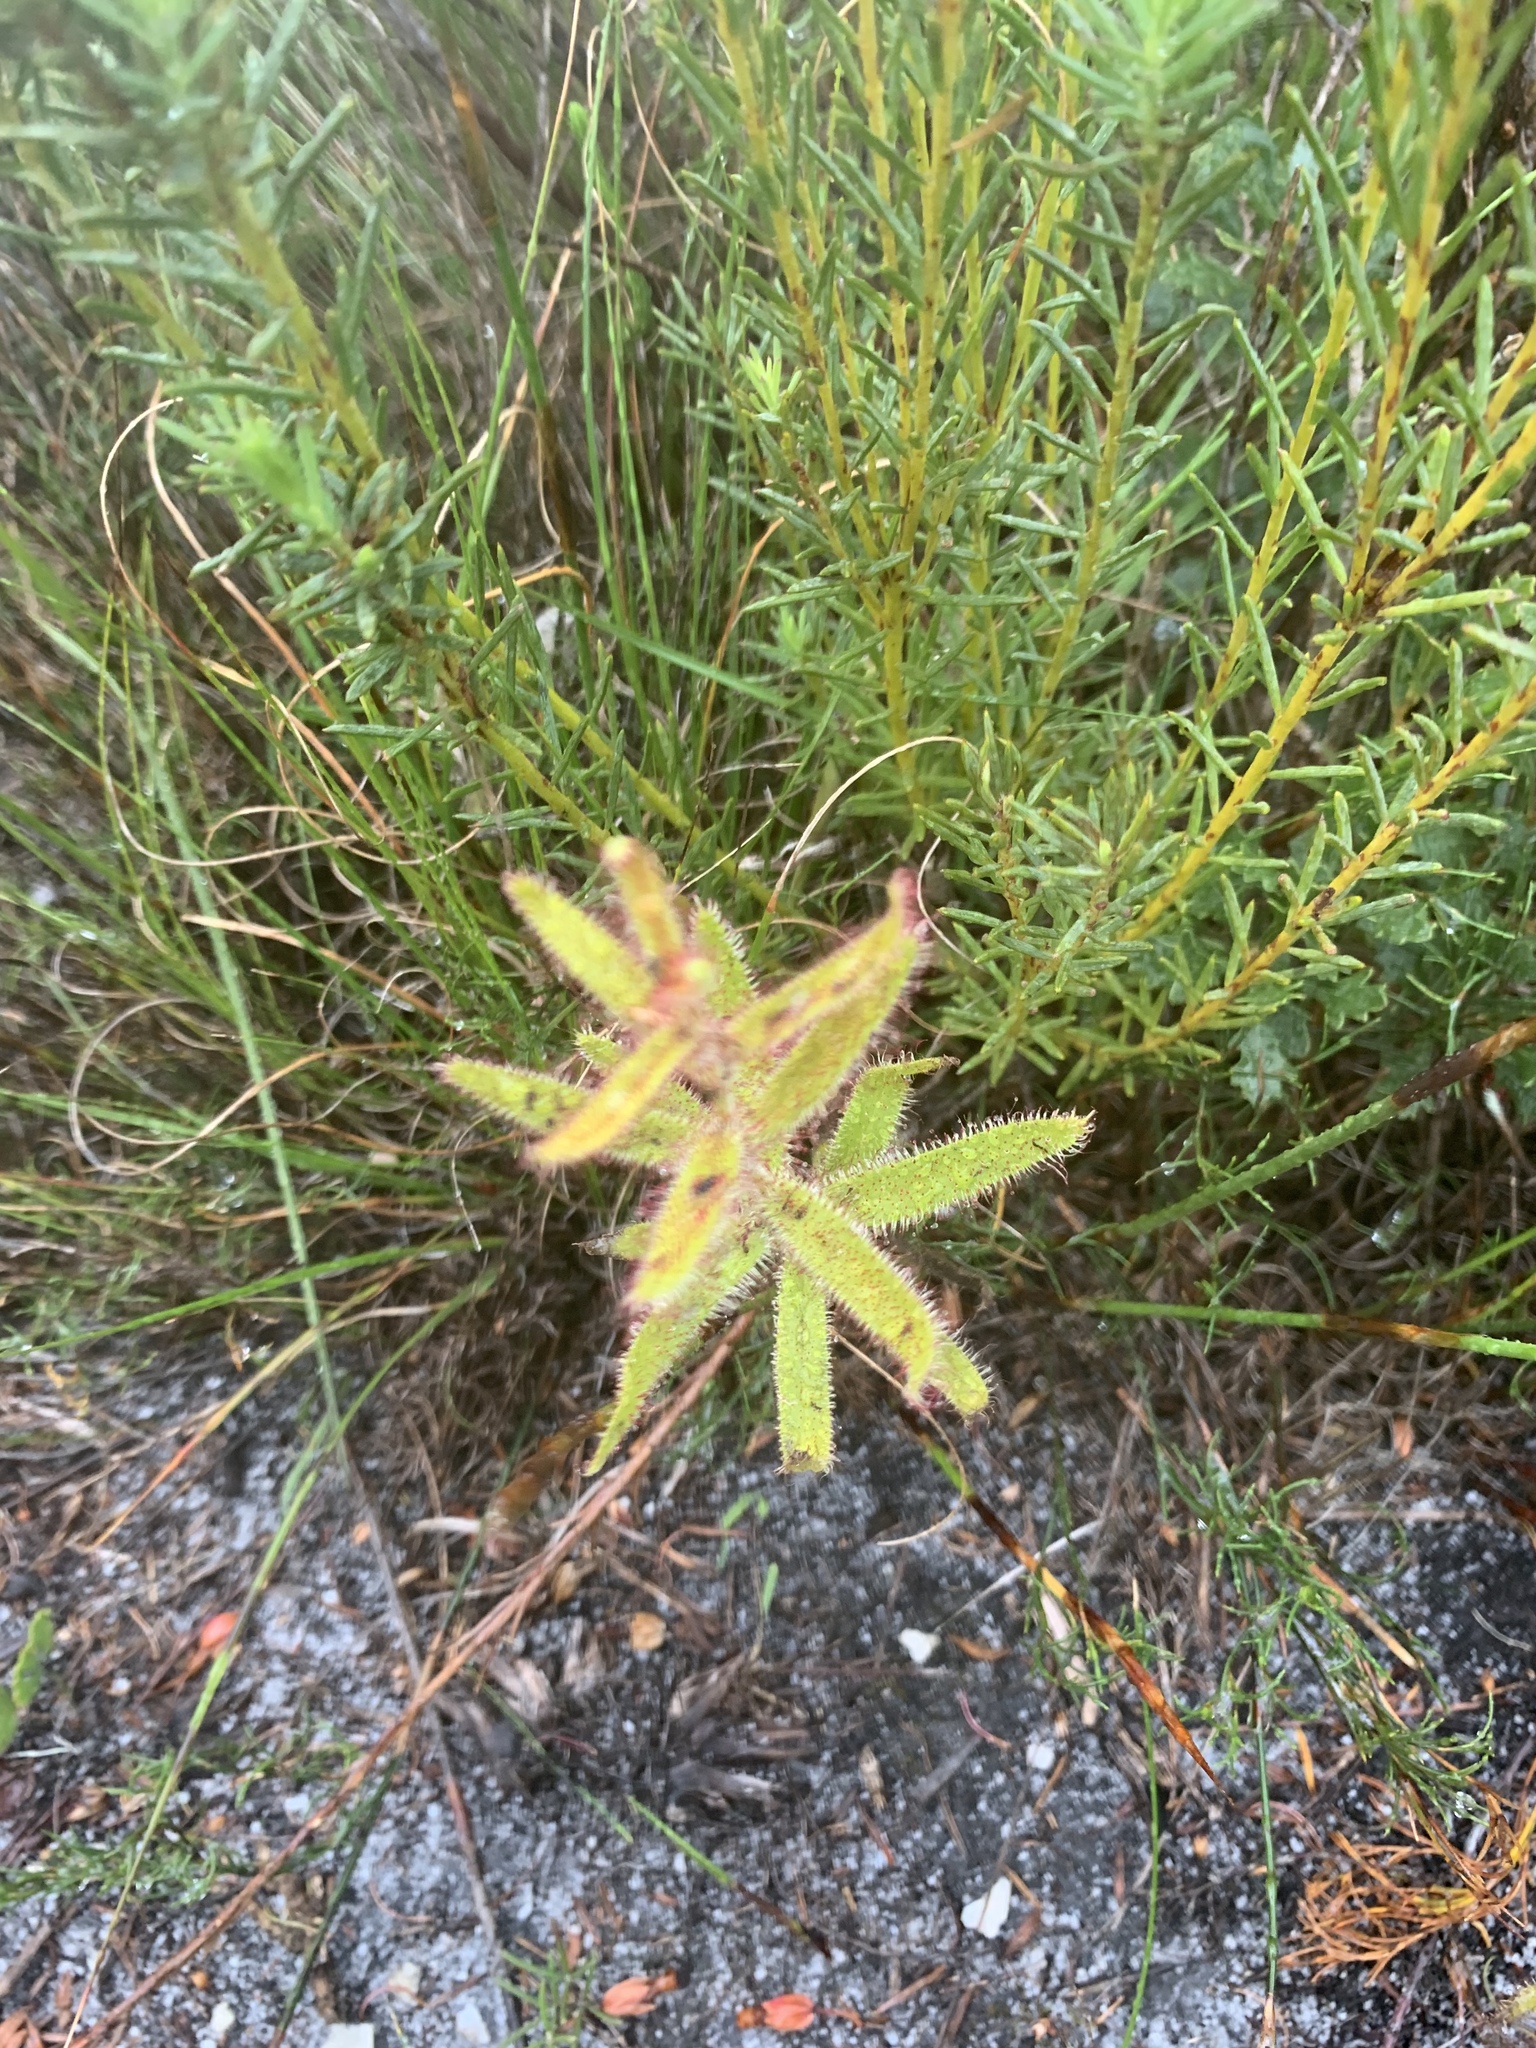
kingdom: Plantae
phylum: Tracheophyta
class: Magnoliopsida
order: Caryophyllales
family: Droseraceae
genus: Drosera
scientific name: Drosera cistiflora
